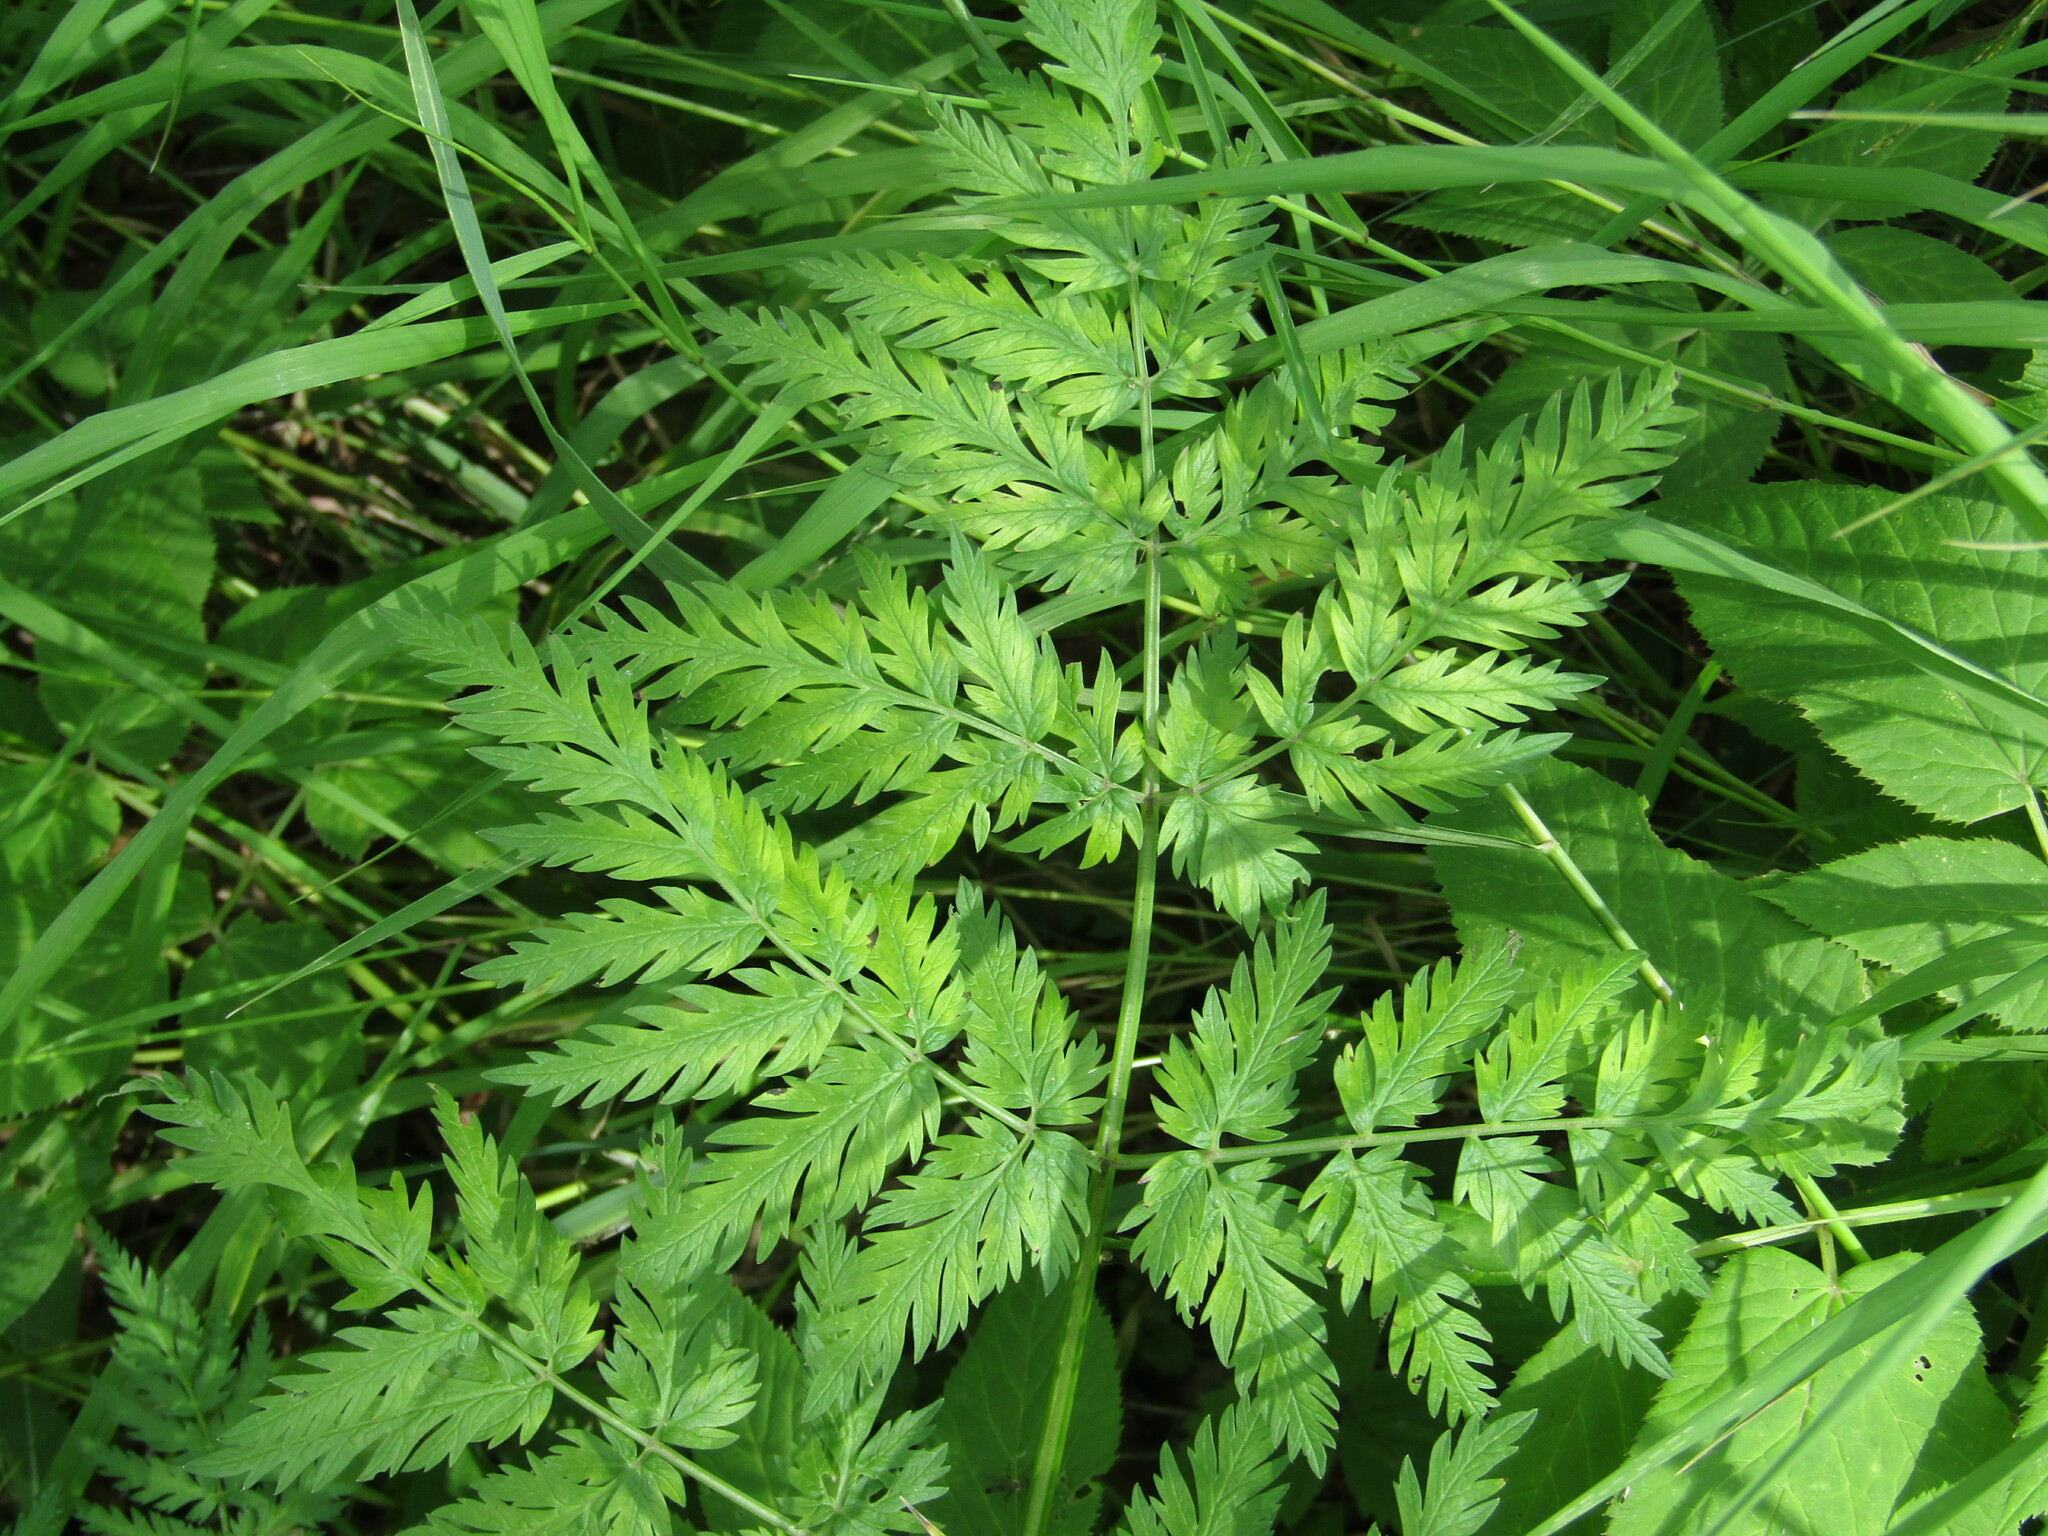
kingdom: Plantae
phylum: Tracheophyta
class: Magnoliopsida
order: Apiales
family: Apiaceae
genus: Anthriscus
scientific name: Anthriscus sylvestris
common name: Cow parsley
